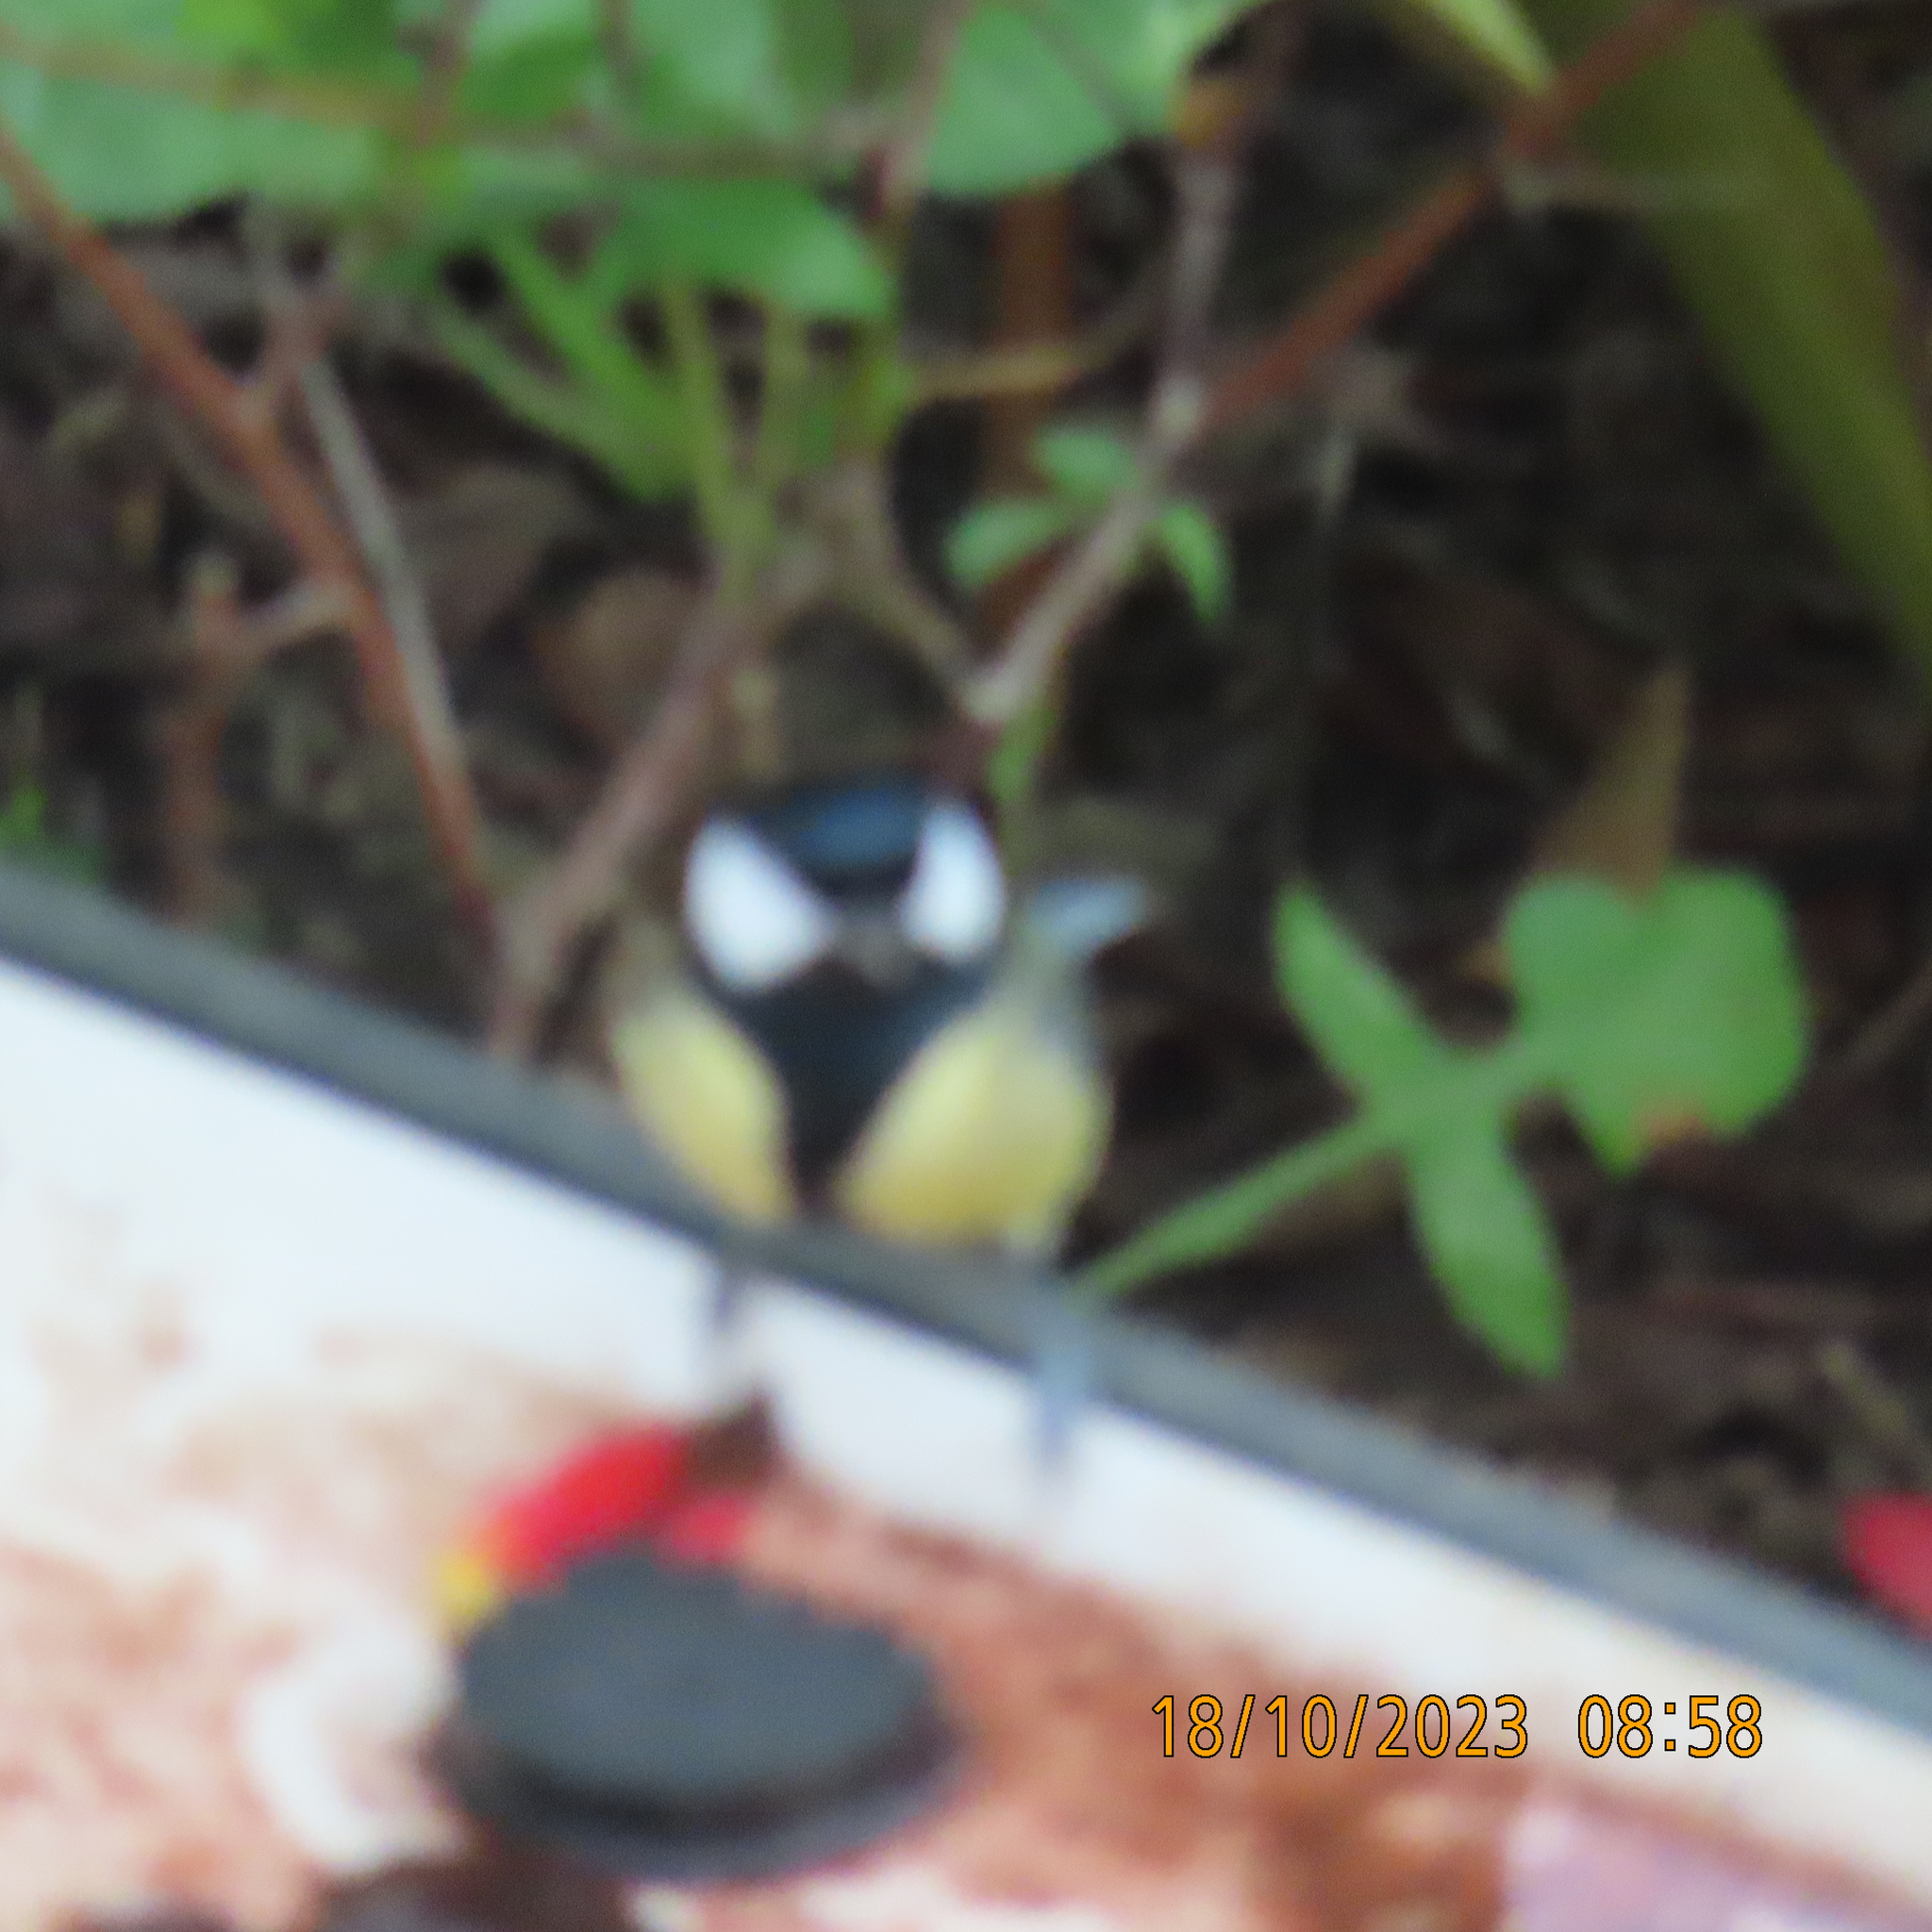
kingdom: Animalia
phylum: Chordata
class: Aves
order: Passeriformes
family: Paridae
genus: Parus
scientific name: Parus major
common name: Great tit
